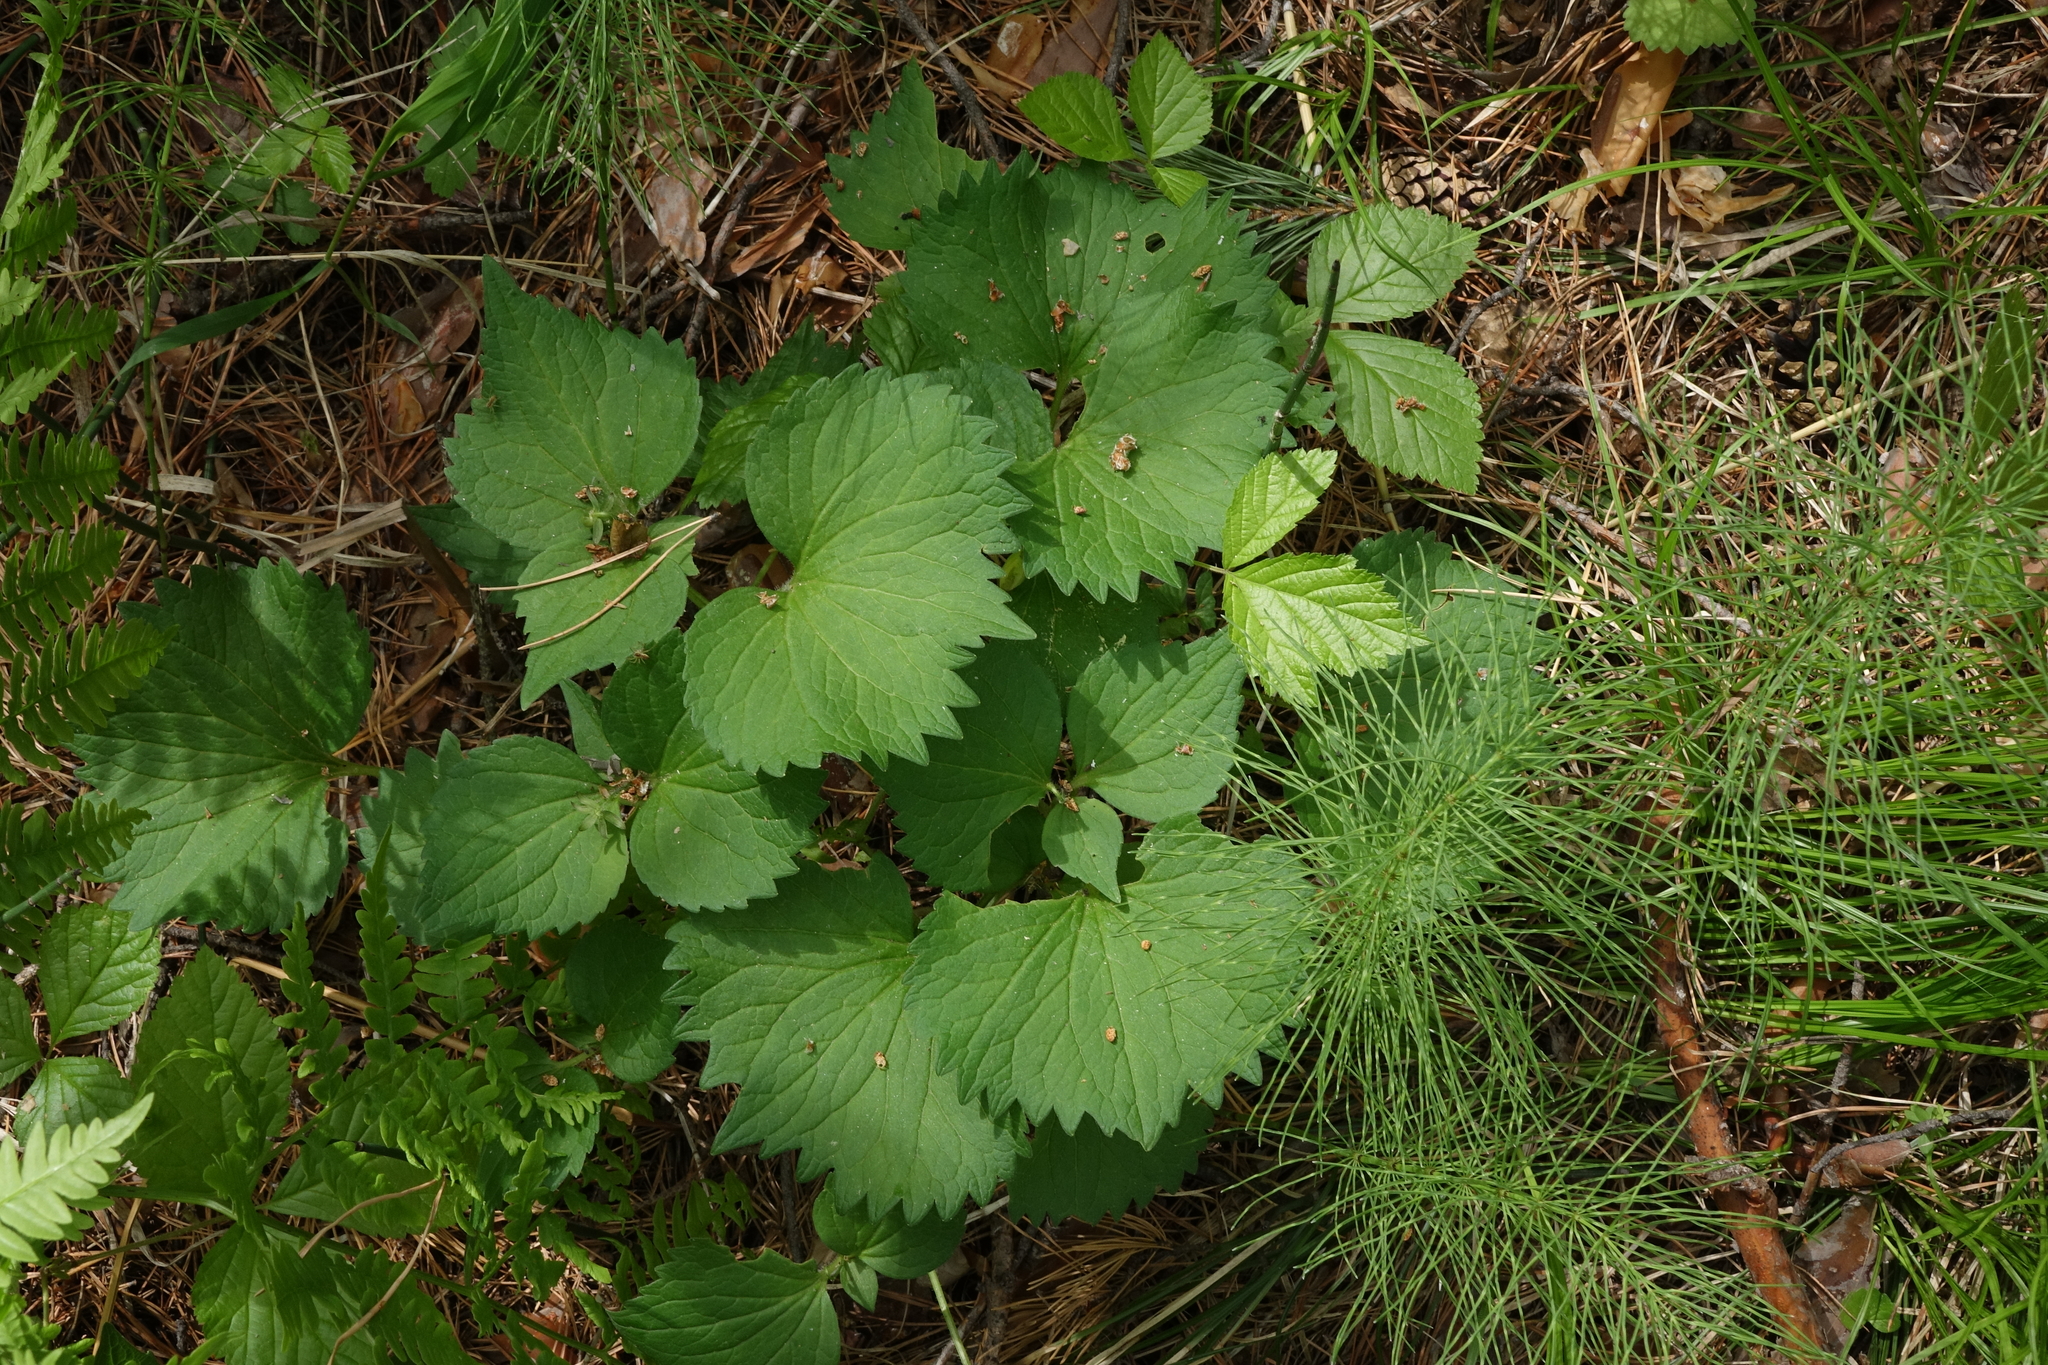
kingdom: Plantae
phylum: Tracheophyta
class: Magnoliopsida
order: Malpighiales
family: Violaceae
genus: Viola
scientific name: Viola uniflora
